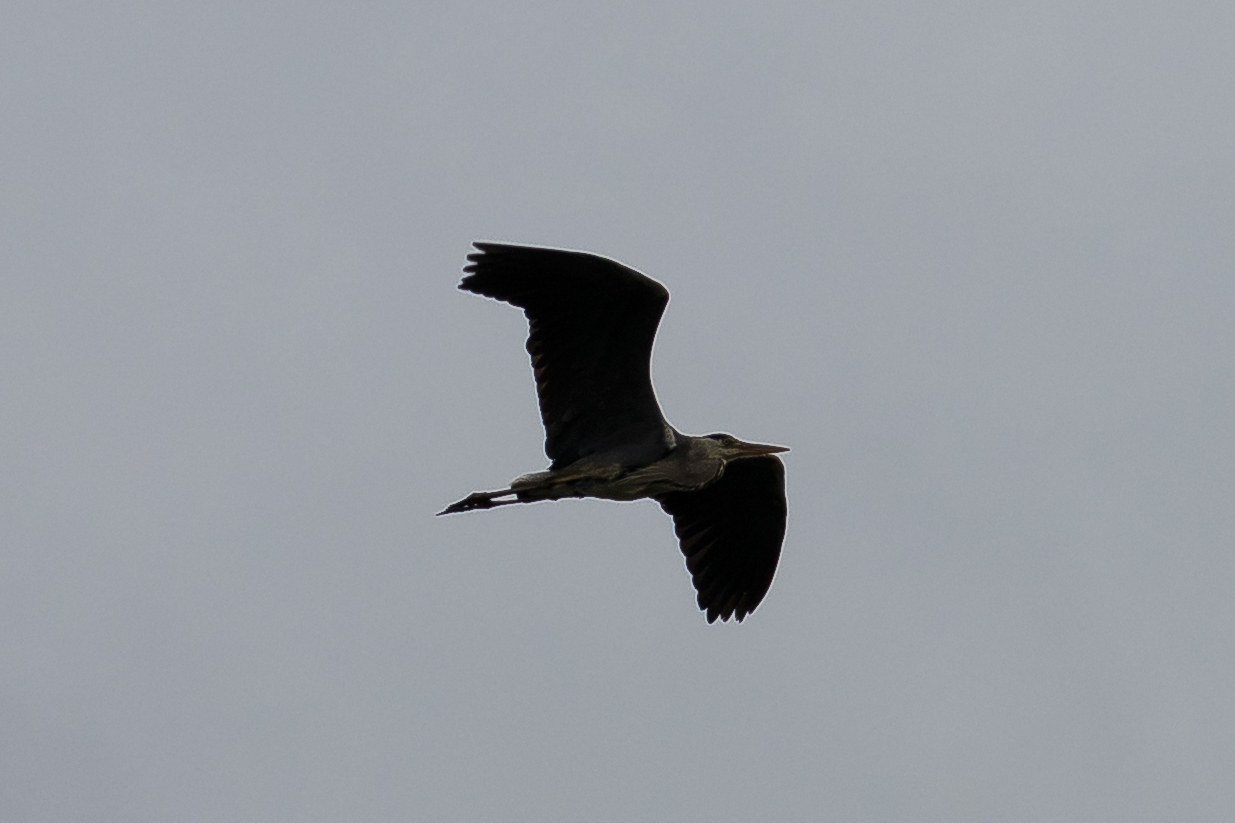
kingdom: Animalia
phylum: Chordata
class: Aves
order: Pelecaniformes
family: Ardeidae
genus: Ardea
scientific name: Ardea cinerea
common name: Grey heron
